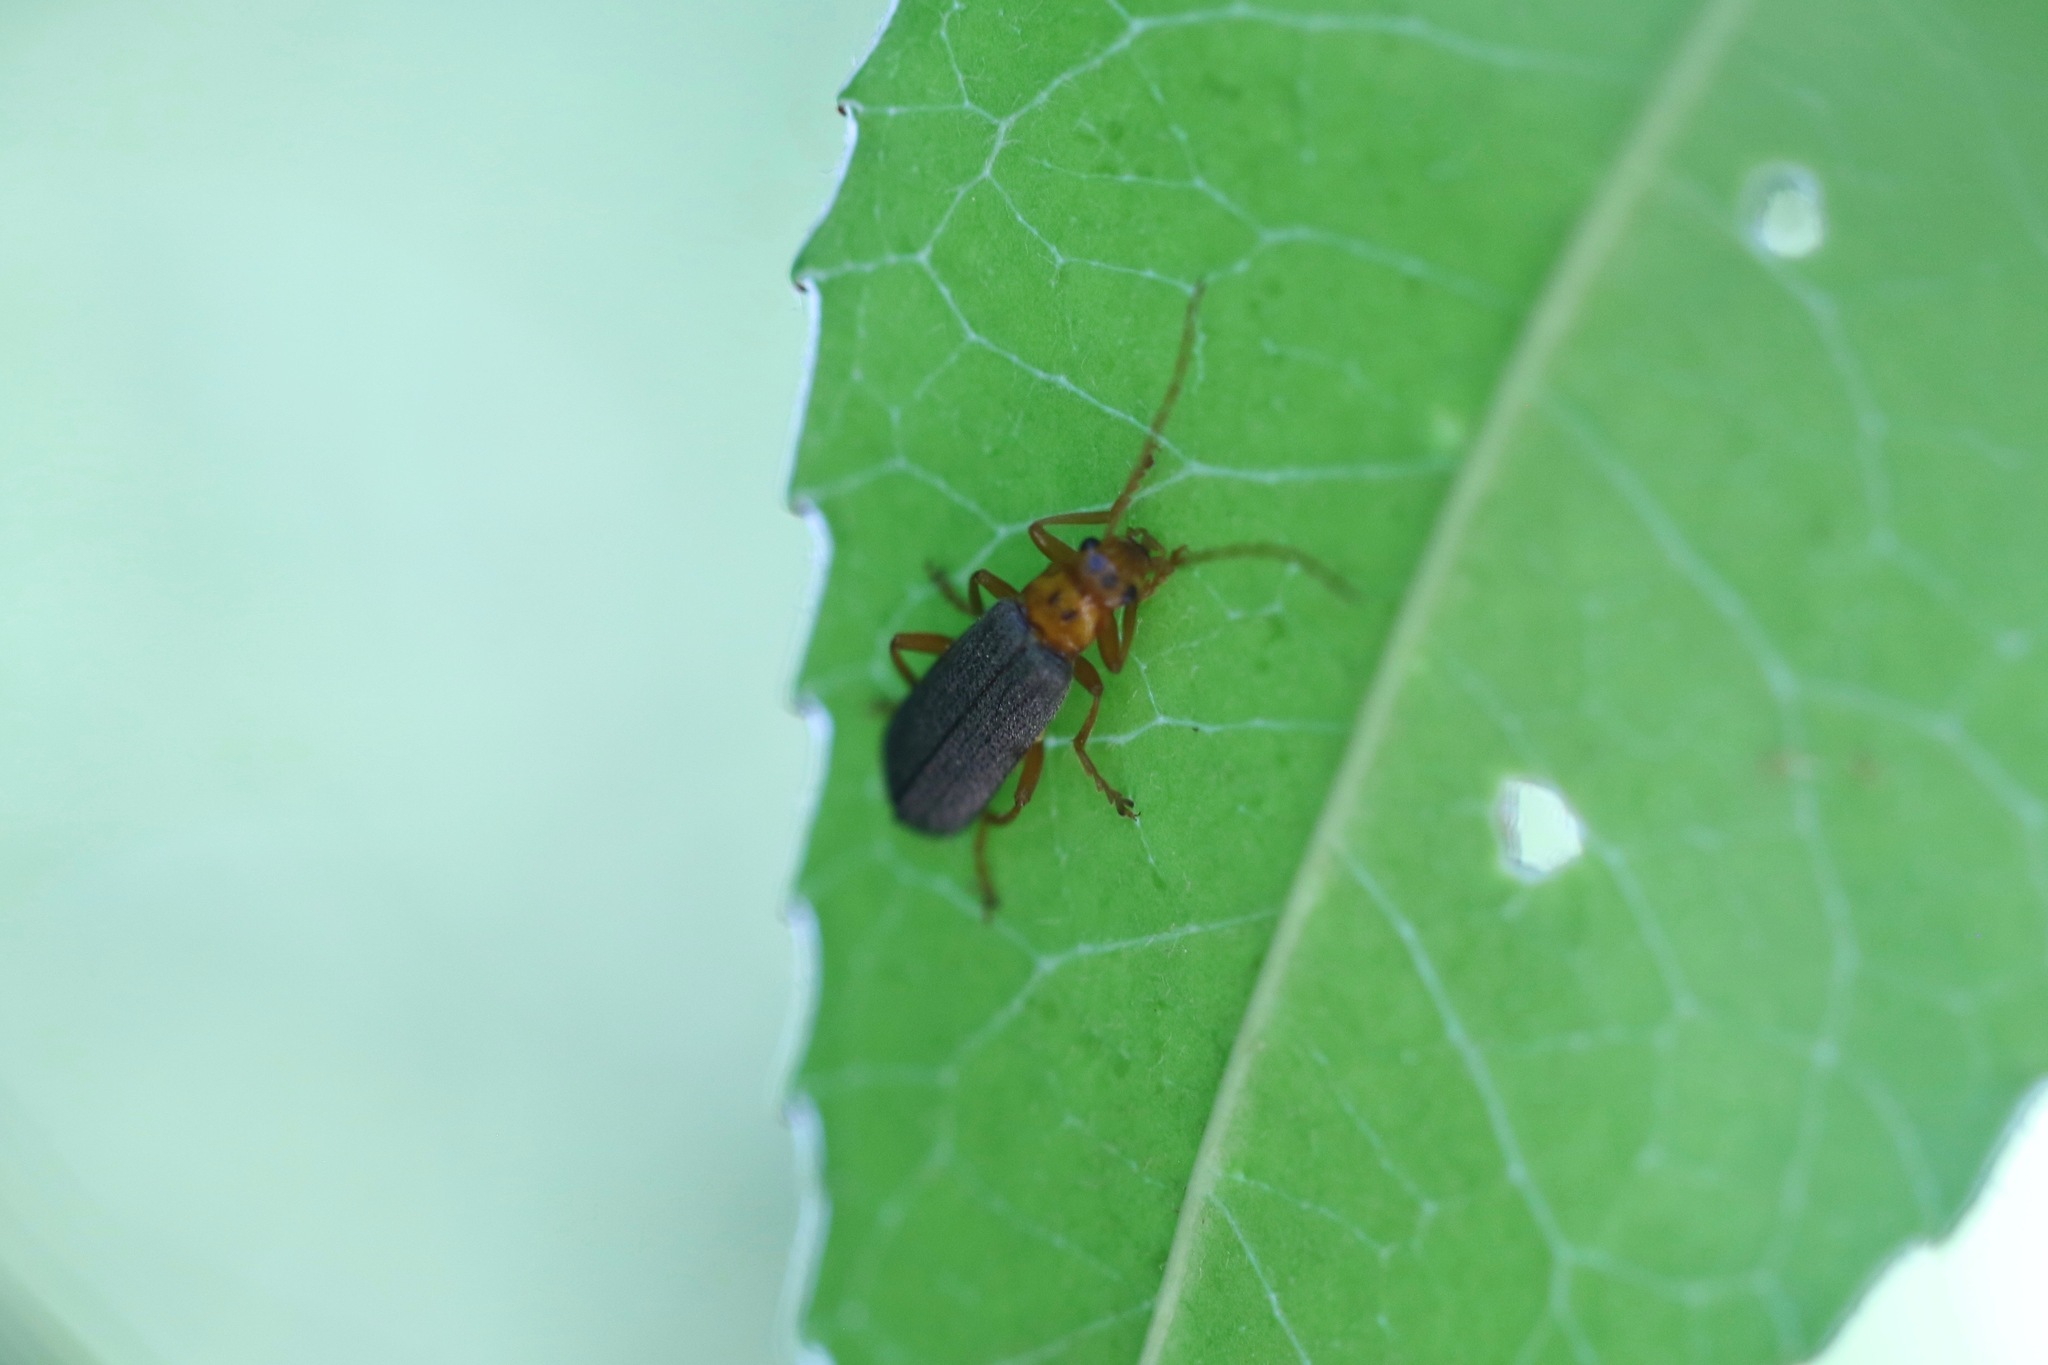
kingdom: Animalia
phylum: Arthropoda
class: Insecta
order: Coleoptera
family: Cantharidae
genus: Cultellunguis
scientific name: Cultellunguis americanus
